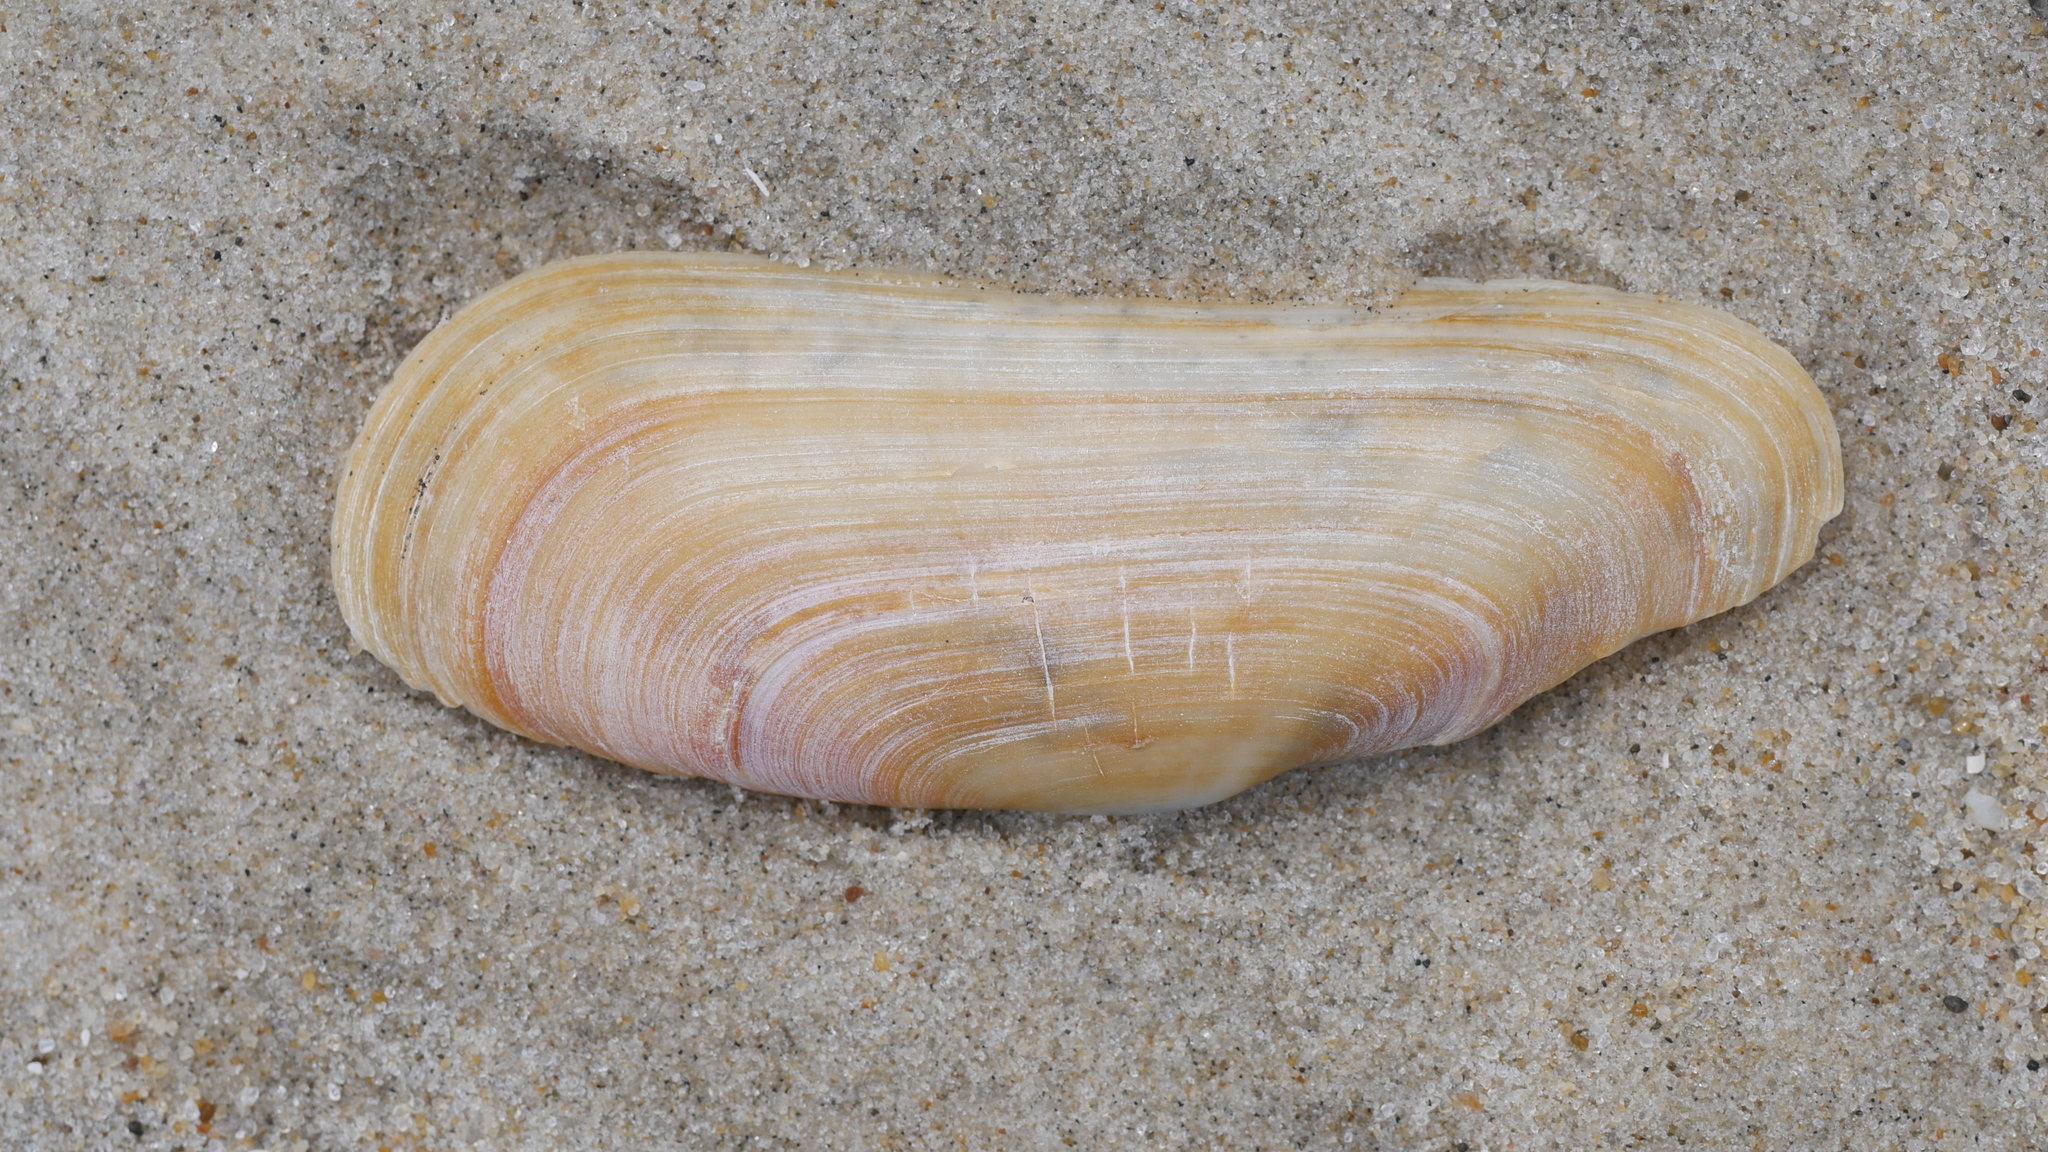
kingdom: Animalia
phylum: Mollusca
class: Bivalvia
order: Cardiida
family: Solecurtidae
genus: Tagelus
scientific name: Tagelus plebeius
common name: Stout tagelus
